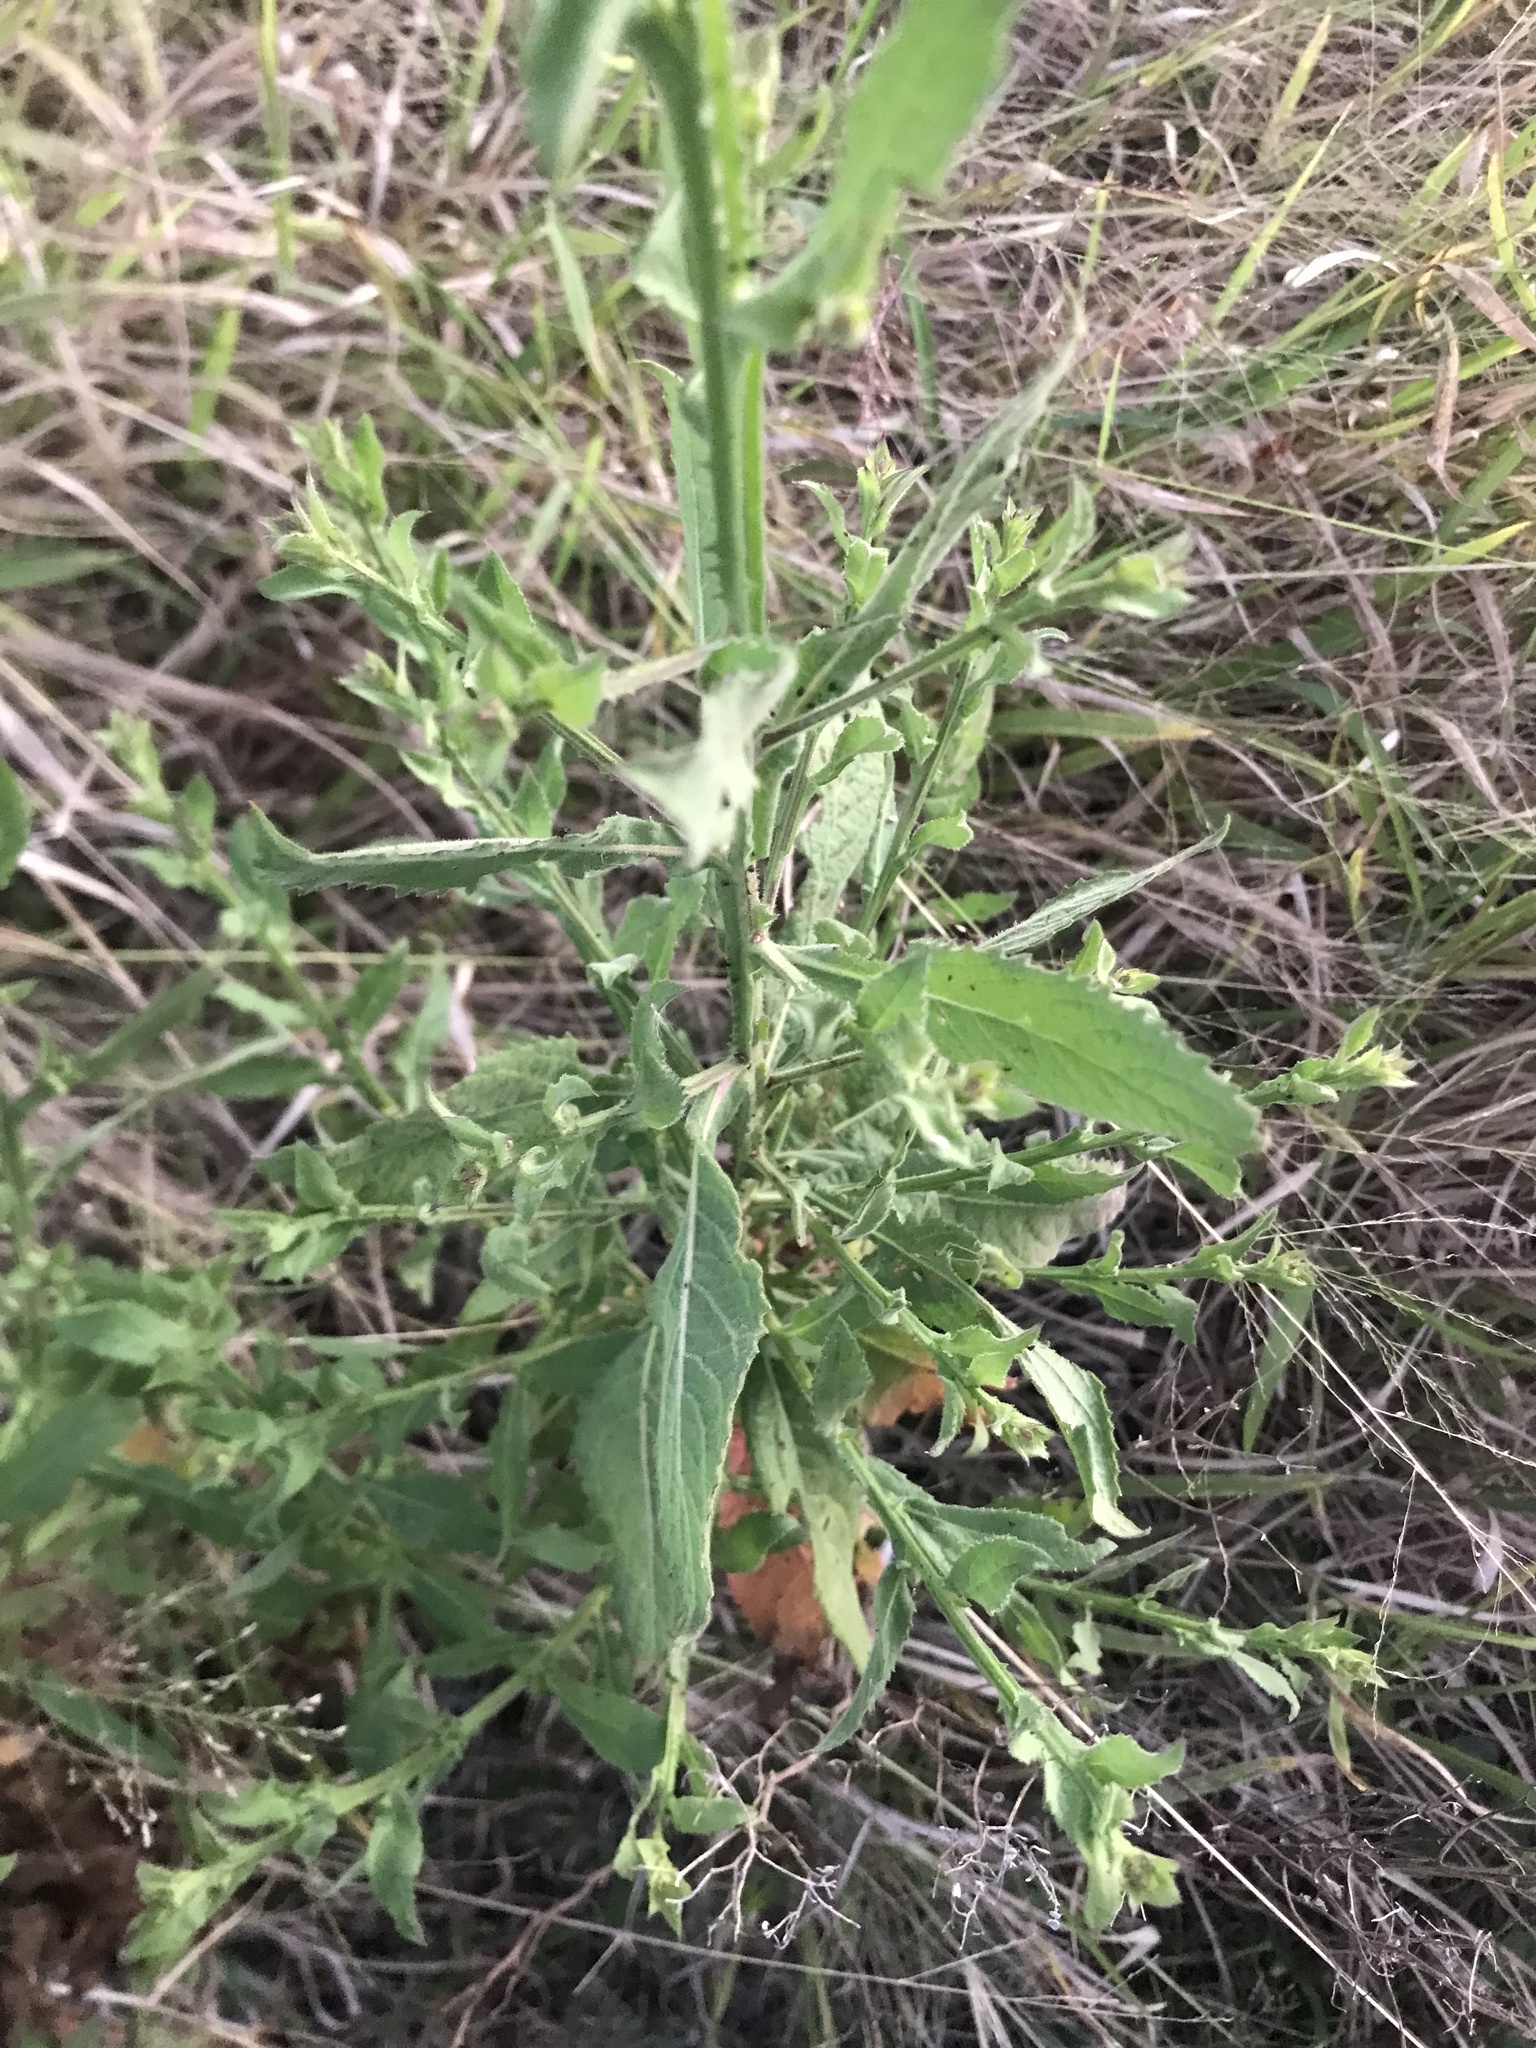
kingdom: Plantae
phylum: Tracheophyta
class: Magnoliopsida
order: Asterales
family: Asteraceae
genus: Laggera
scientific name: Laggera crispata
